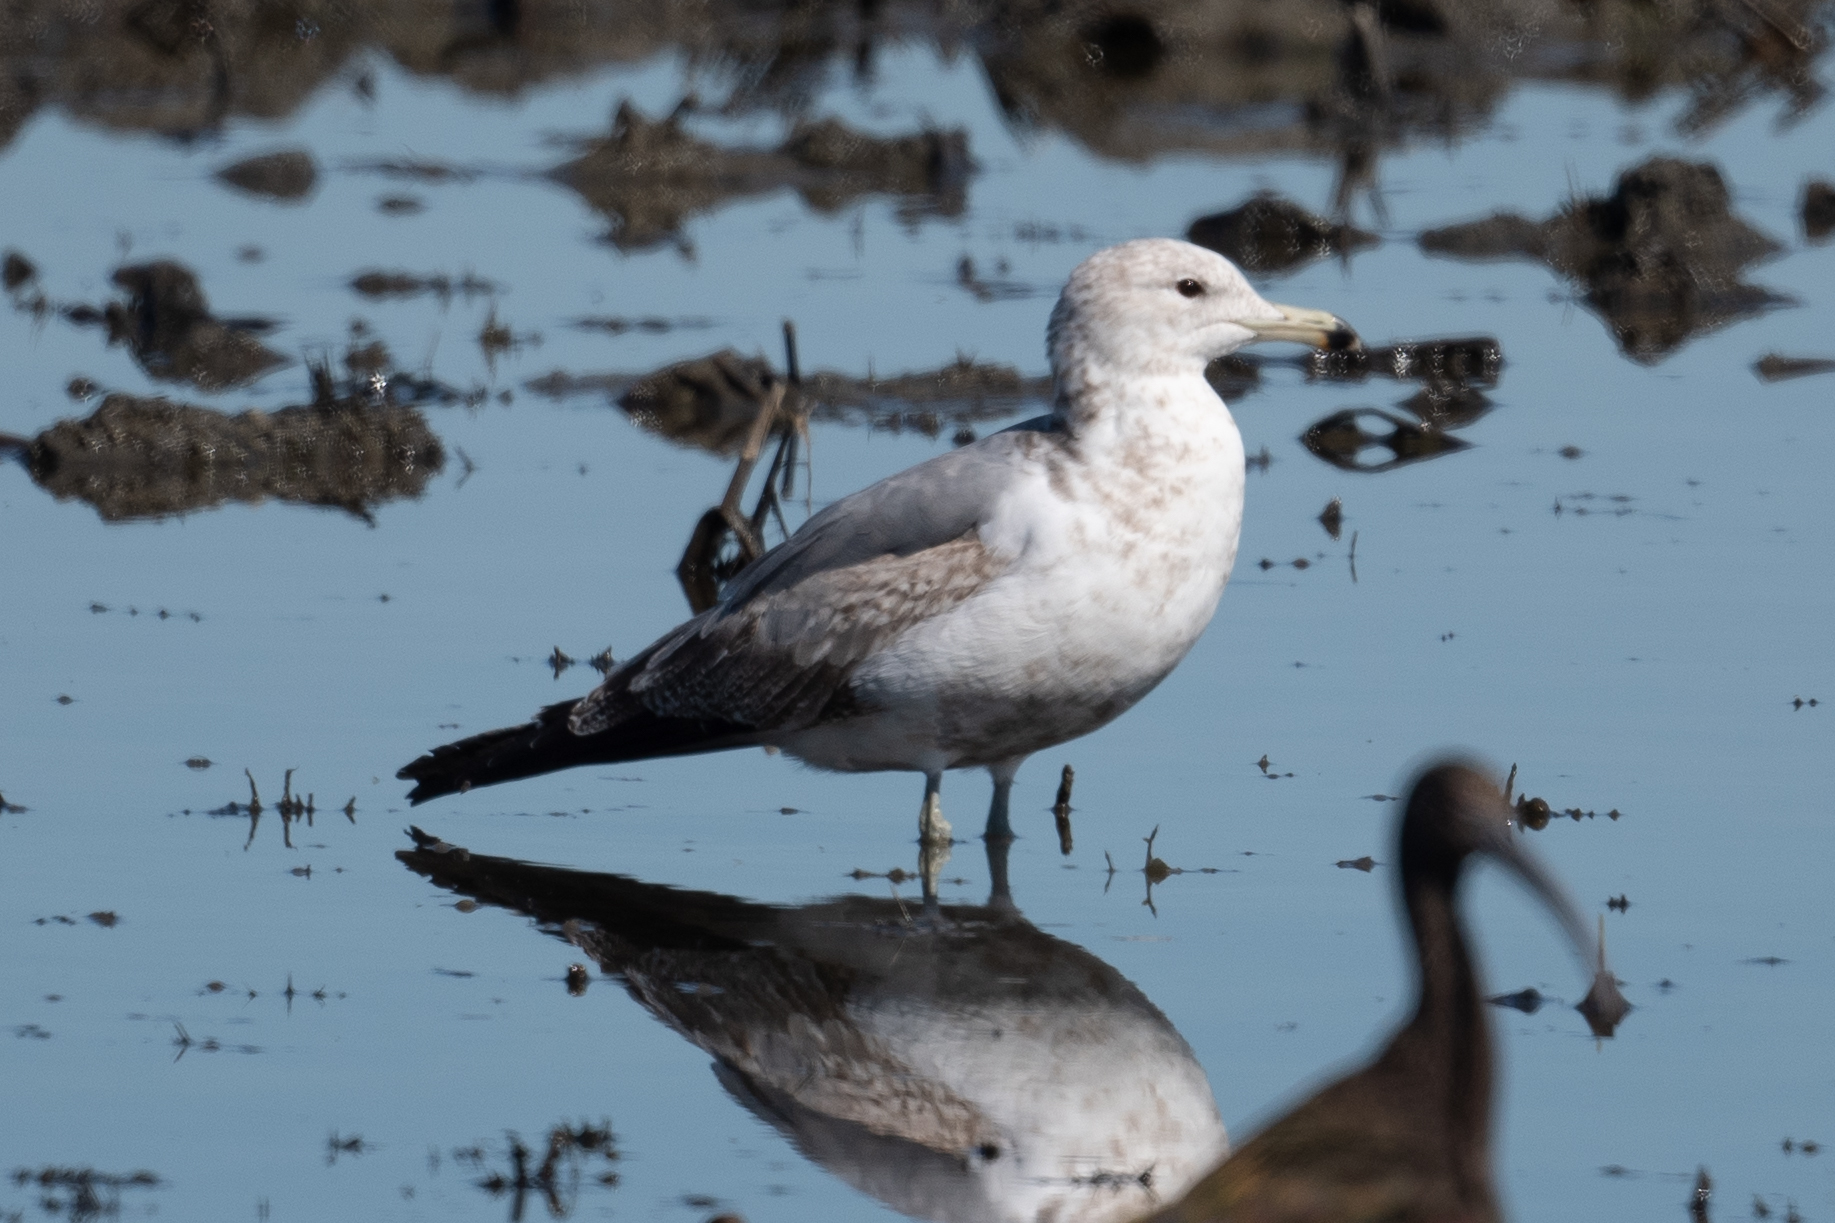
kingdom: Animalia
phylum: Chordata
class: Aves
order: Charadriiformes
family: Laridae
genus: Larus
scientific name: Larus californicus
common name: California gull
